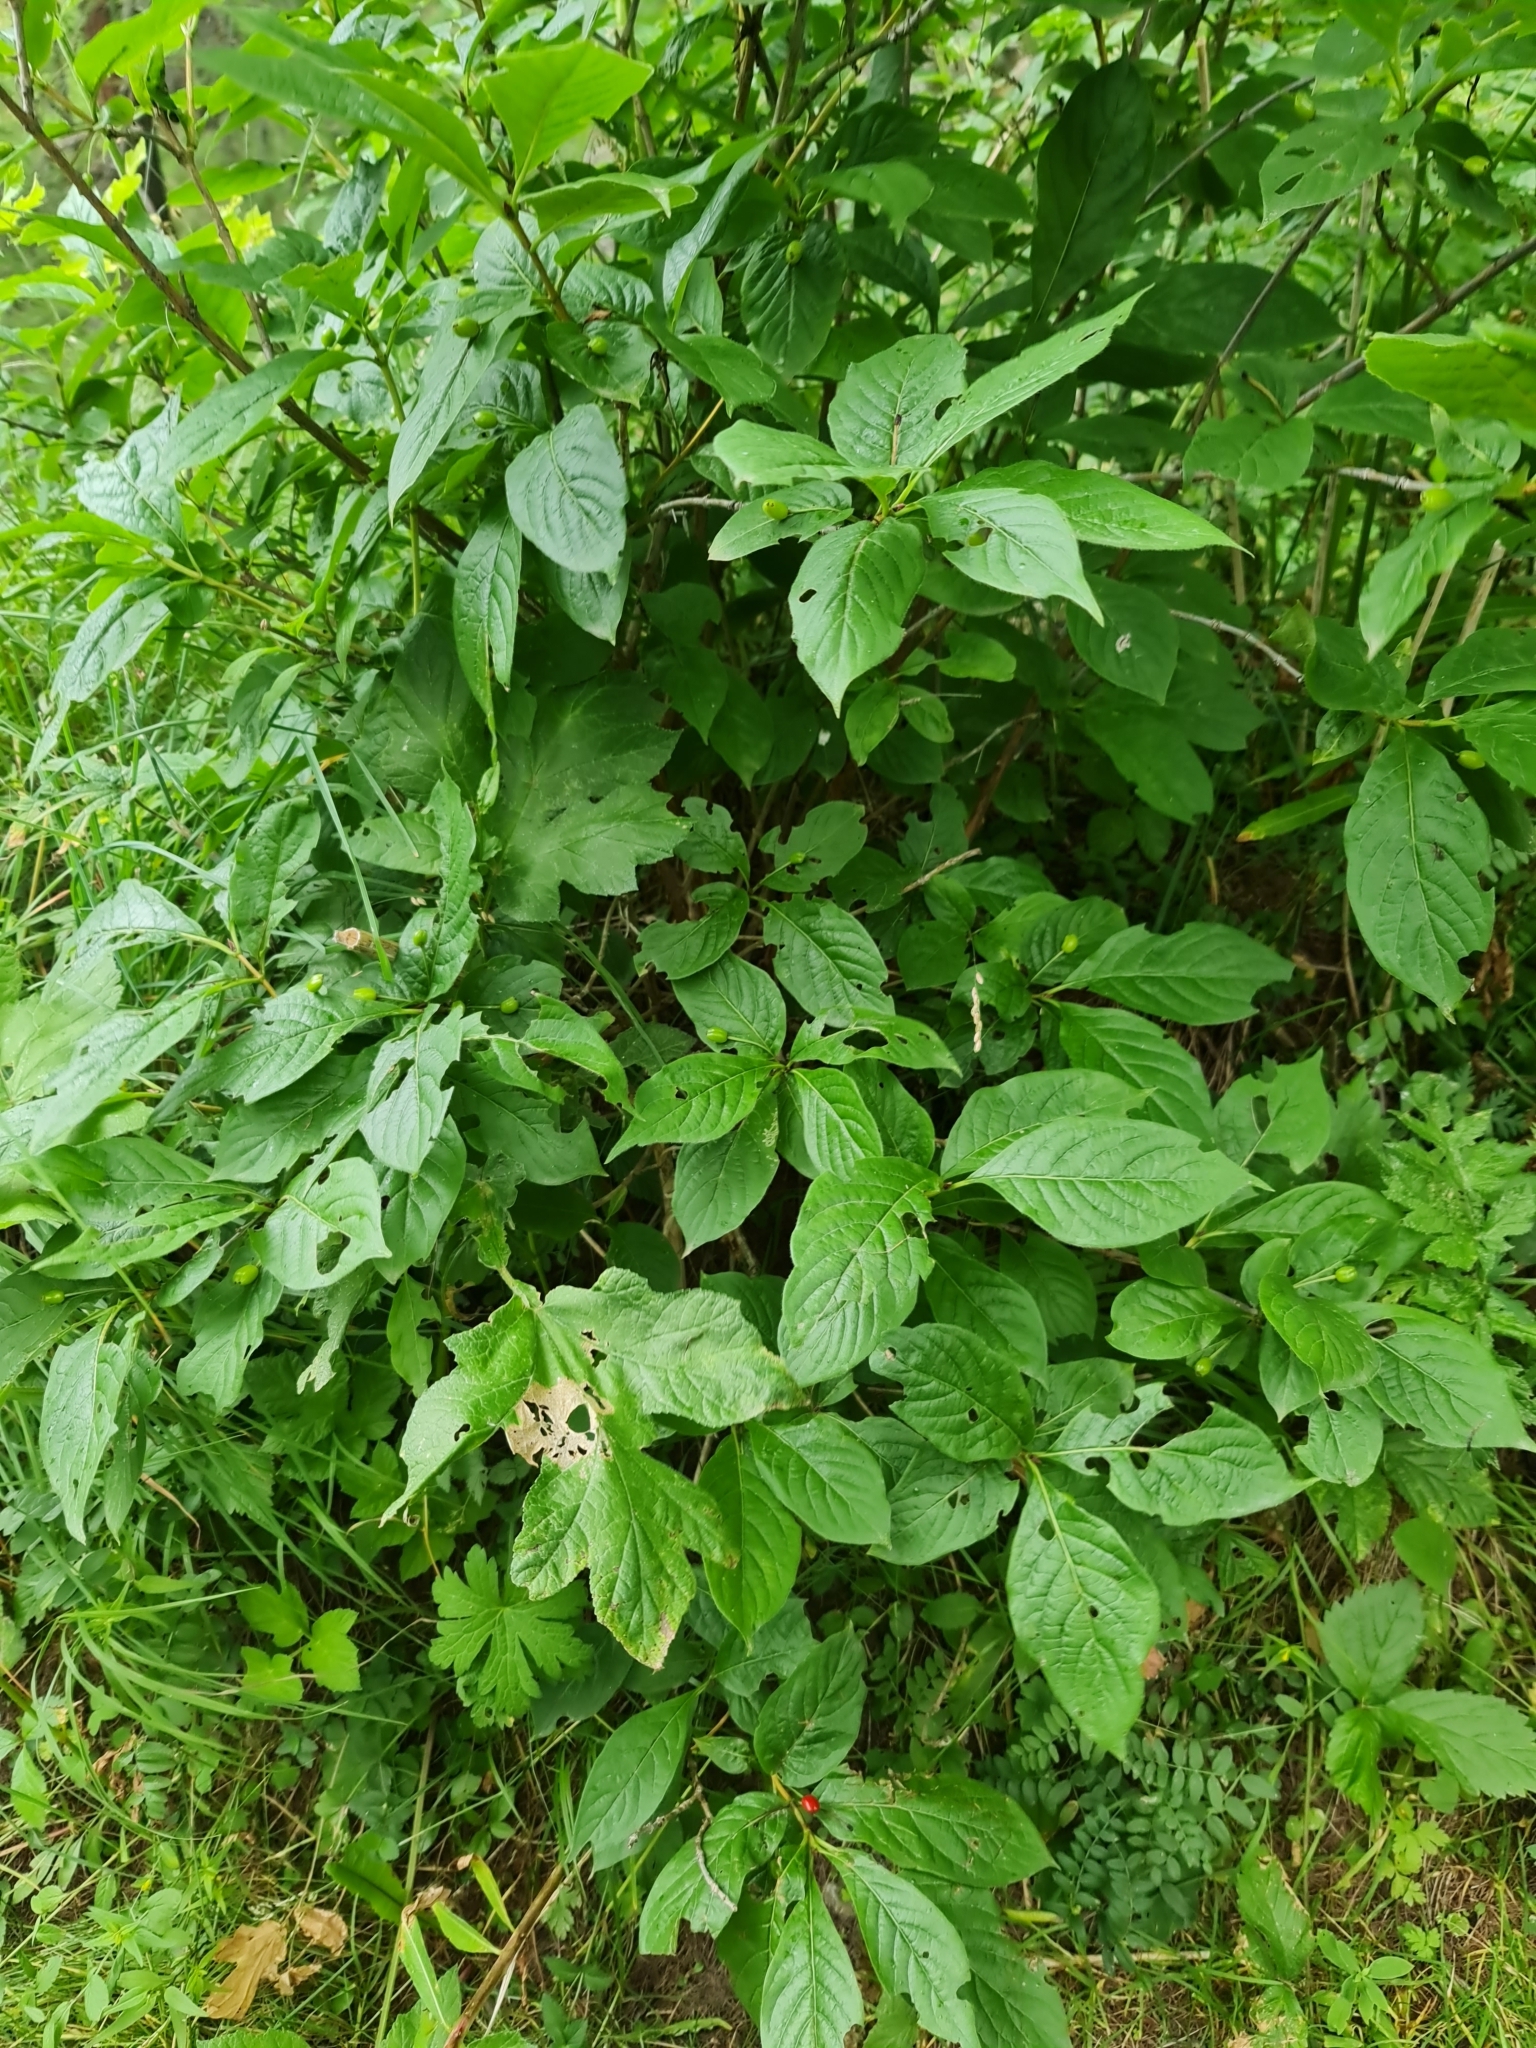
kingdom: Plantae
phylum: Tracheophyta
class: Magnoliopsida
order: Dipsacales
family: Caprifoliaceae
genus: Lonicera
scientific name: Lonicera alpigena
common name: Alpine honeysuckle
